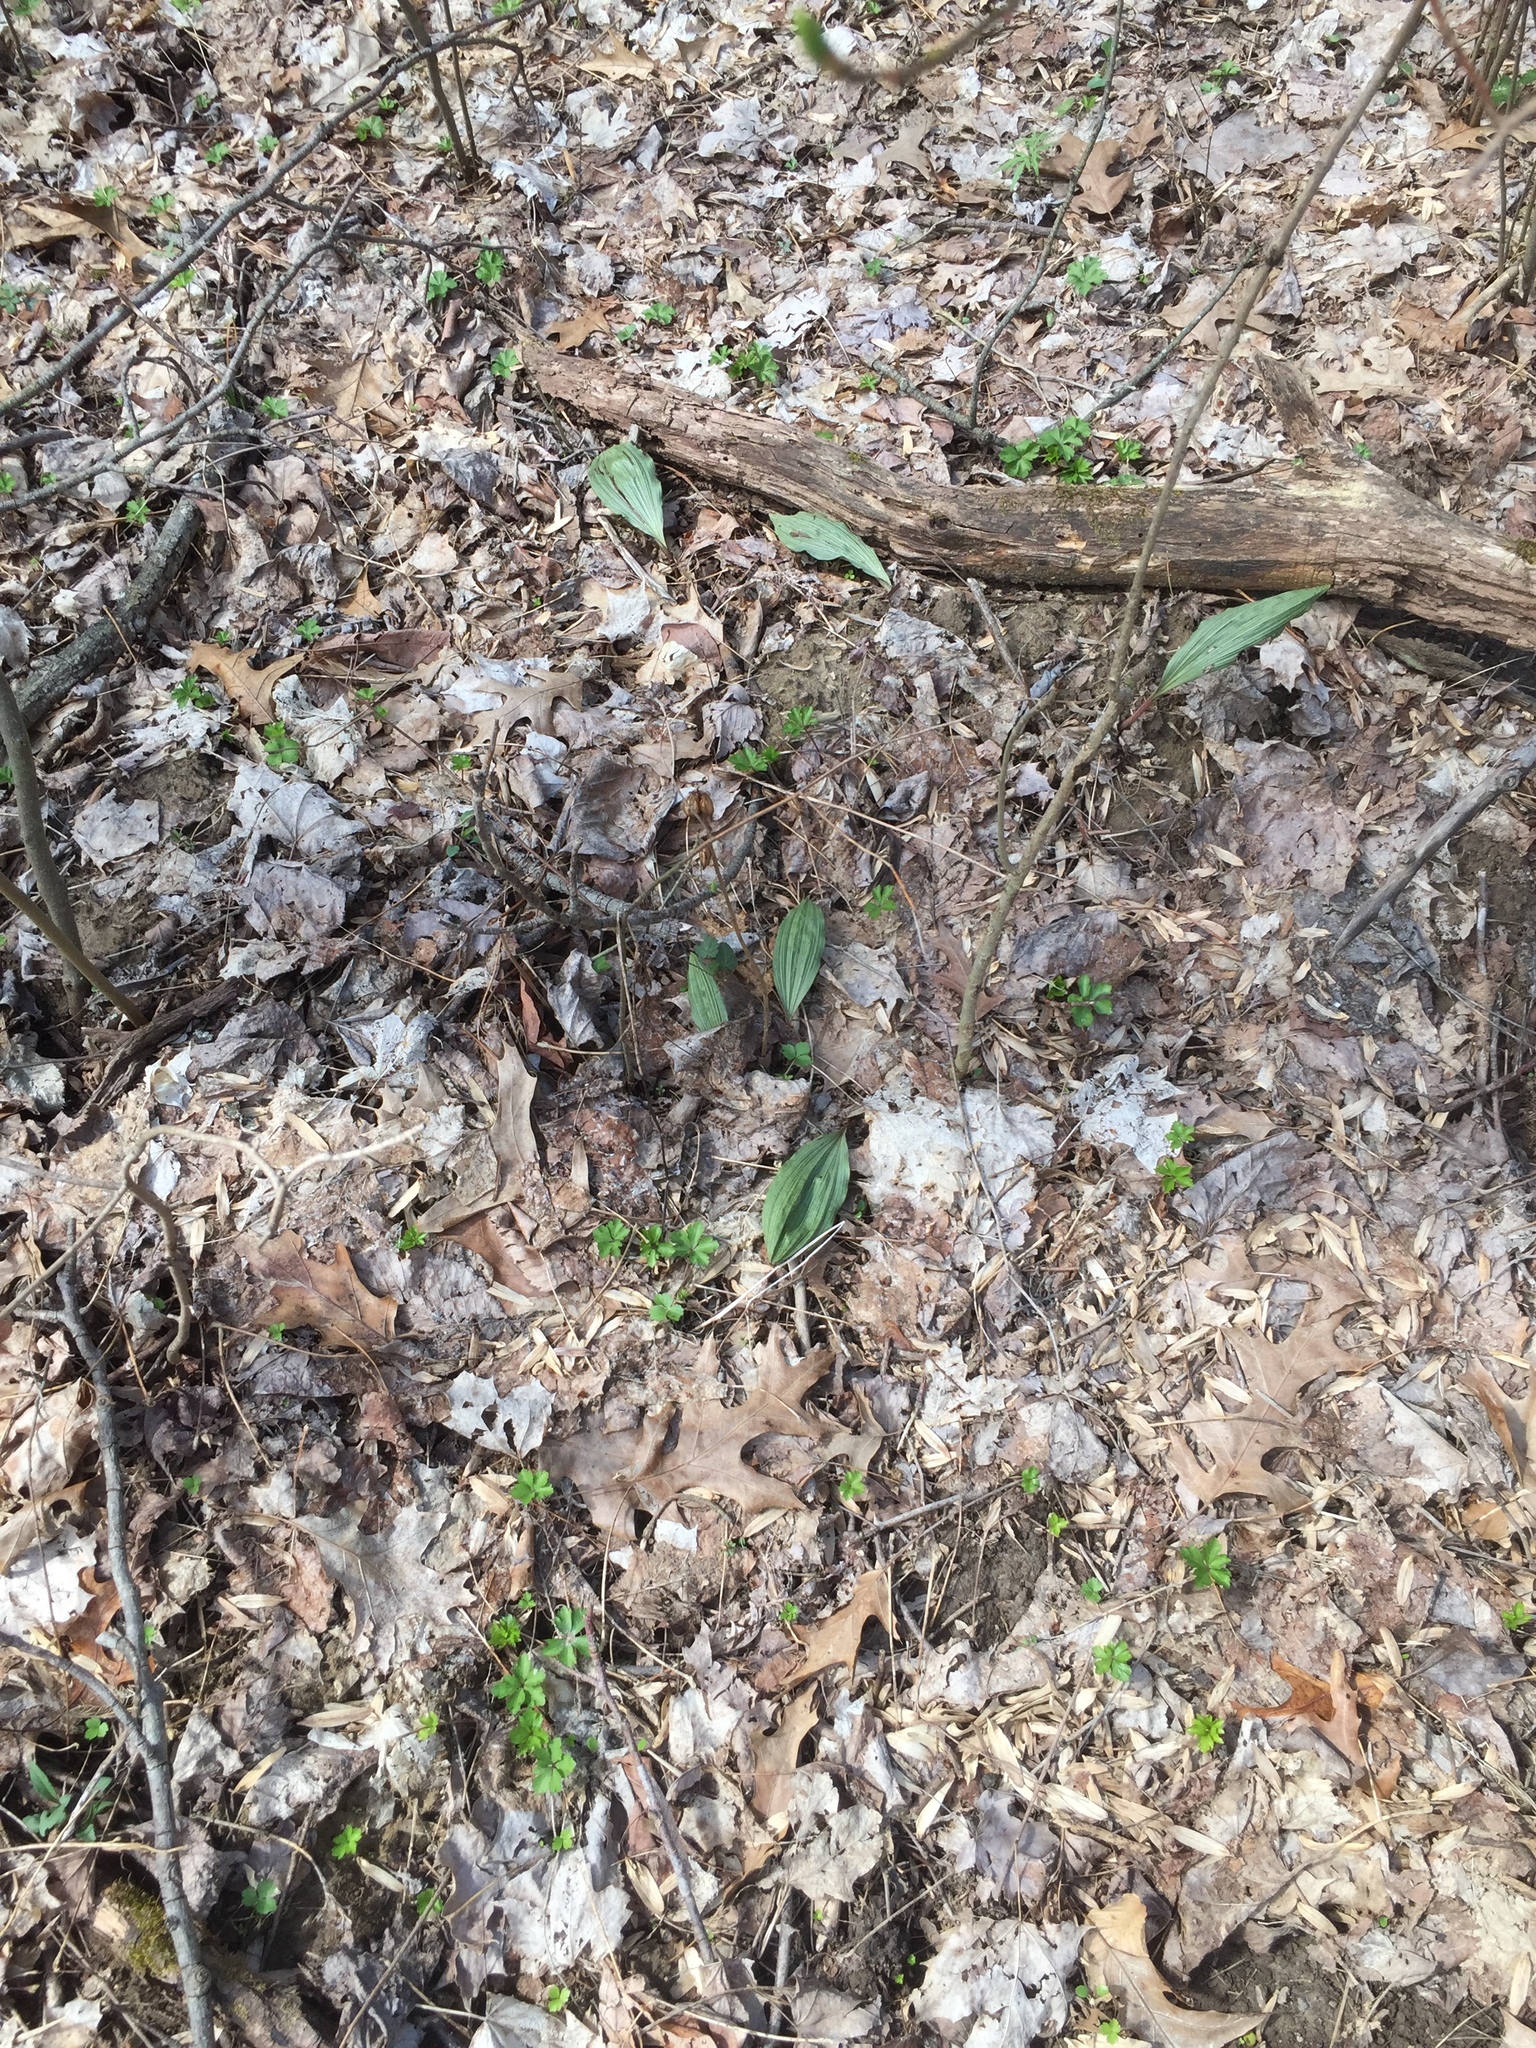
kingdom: Plantae
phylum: Tracheophyta
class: Liliopsida
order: Asparagales
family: Orchidaceae
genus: Aplectrum
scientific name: Aplectrum hyemale
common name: Adam-and-eve
